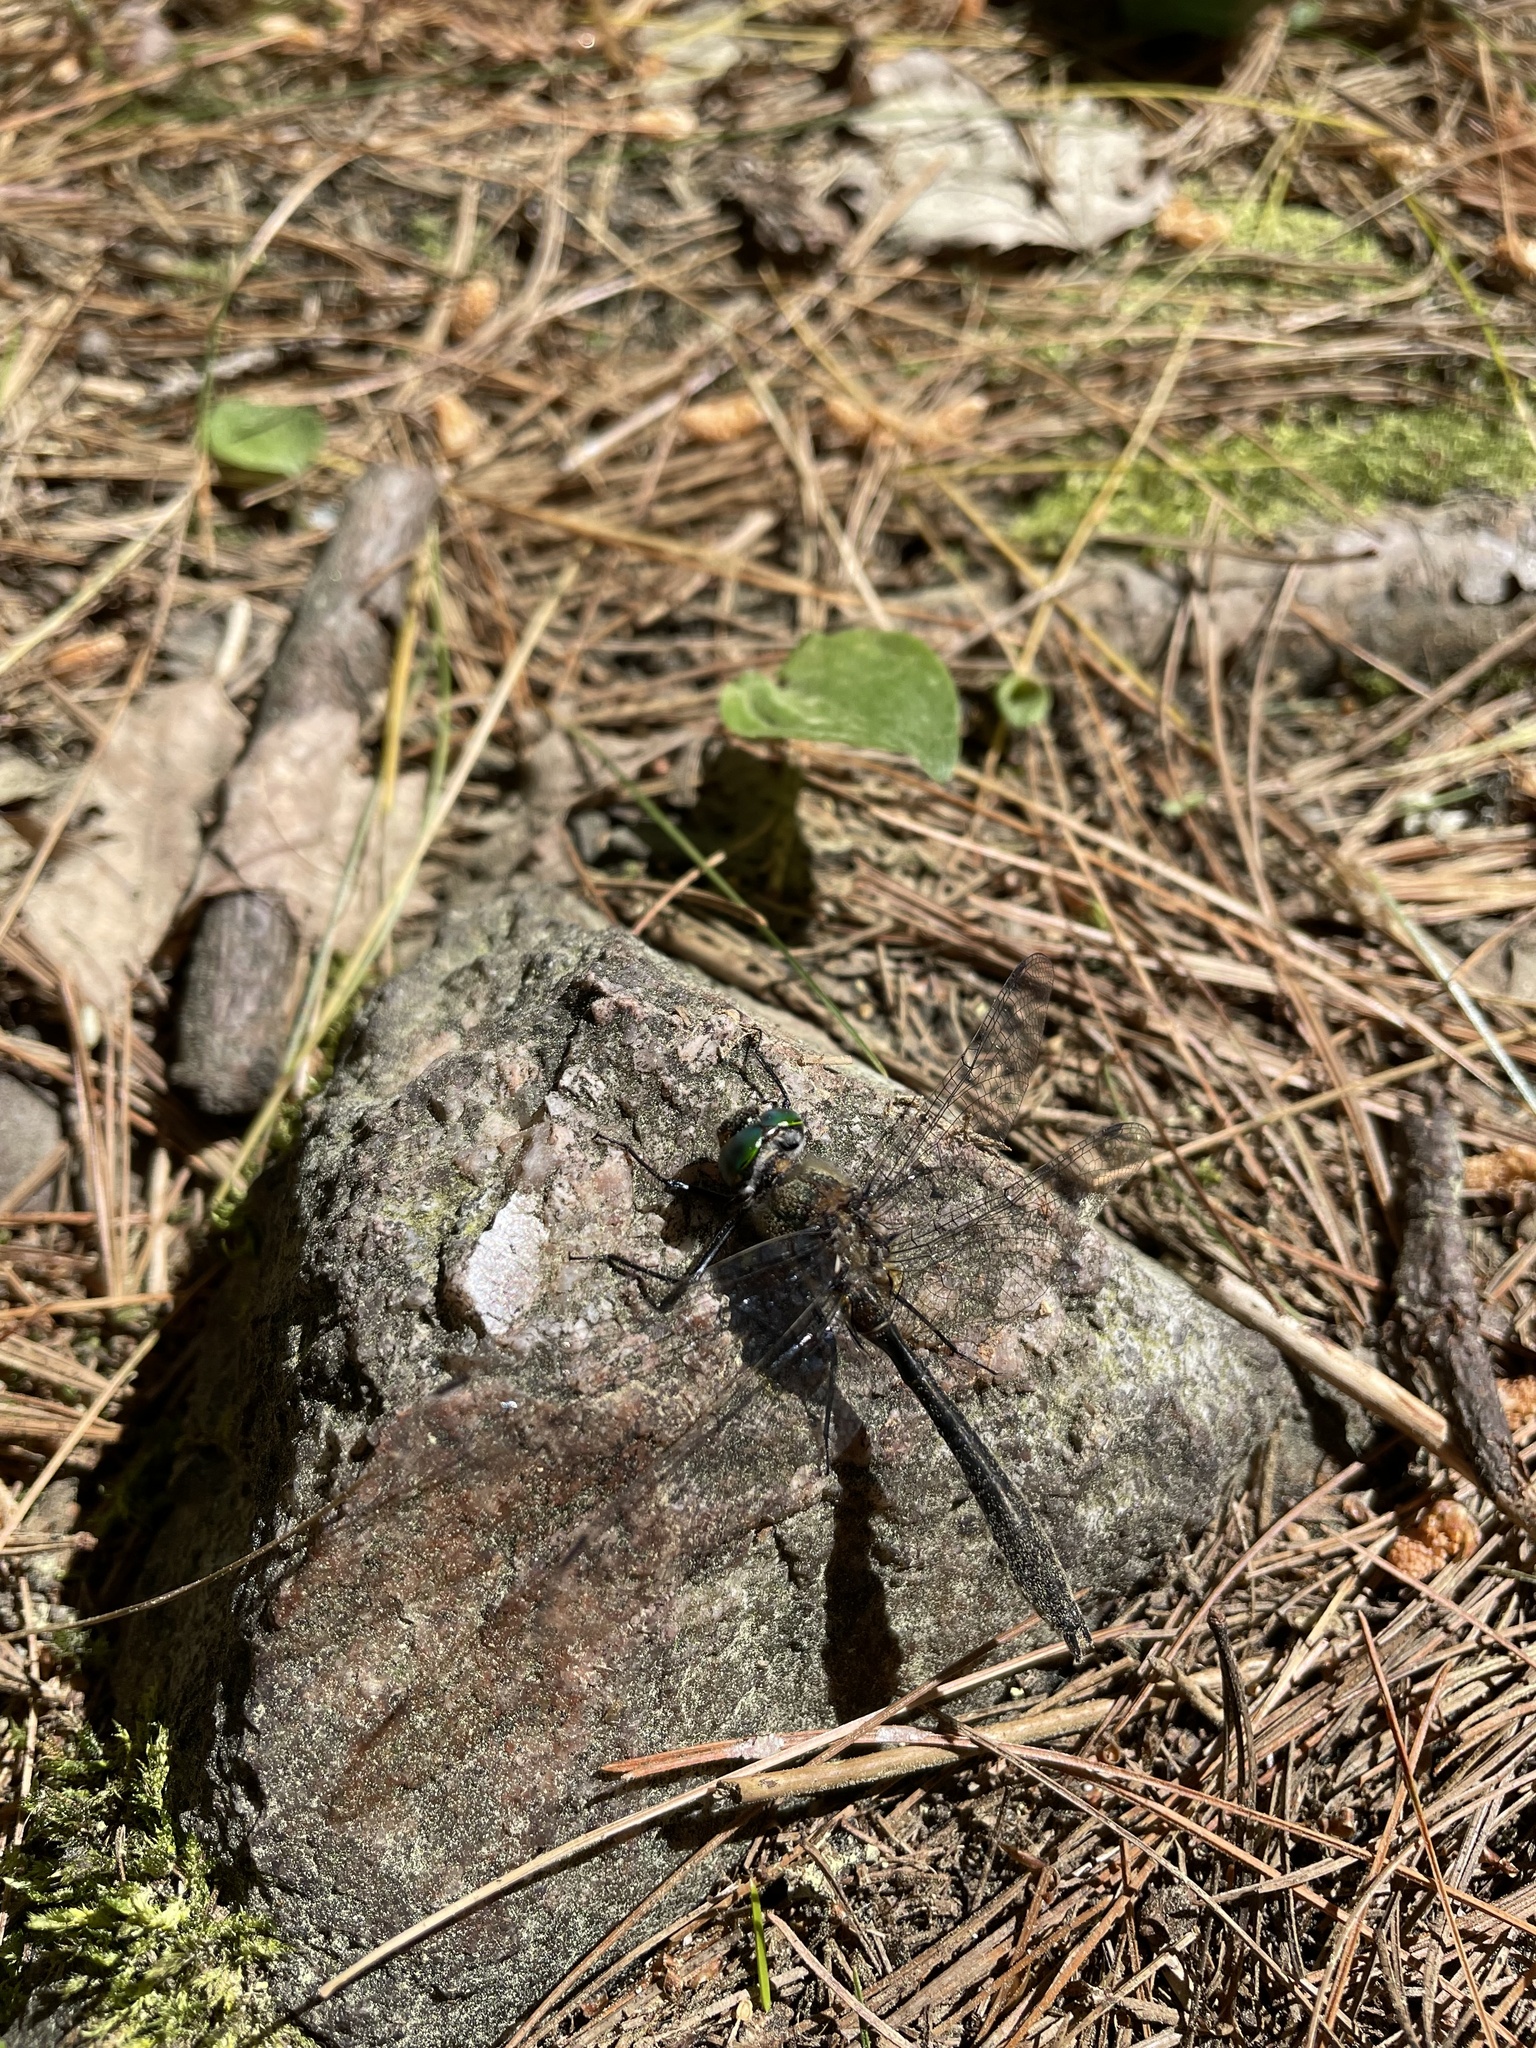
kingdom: Animalia
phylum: Arthropoda
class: Insecta
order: Odonata
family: Corduliidae
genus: Cordulia
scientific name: Cordulia shurtleffii
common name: American emerald
